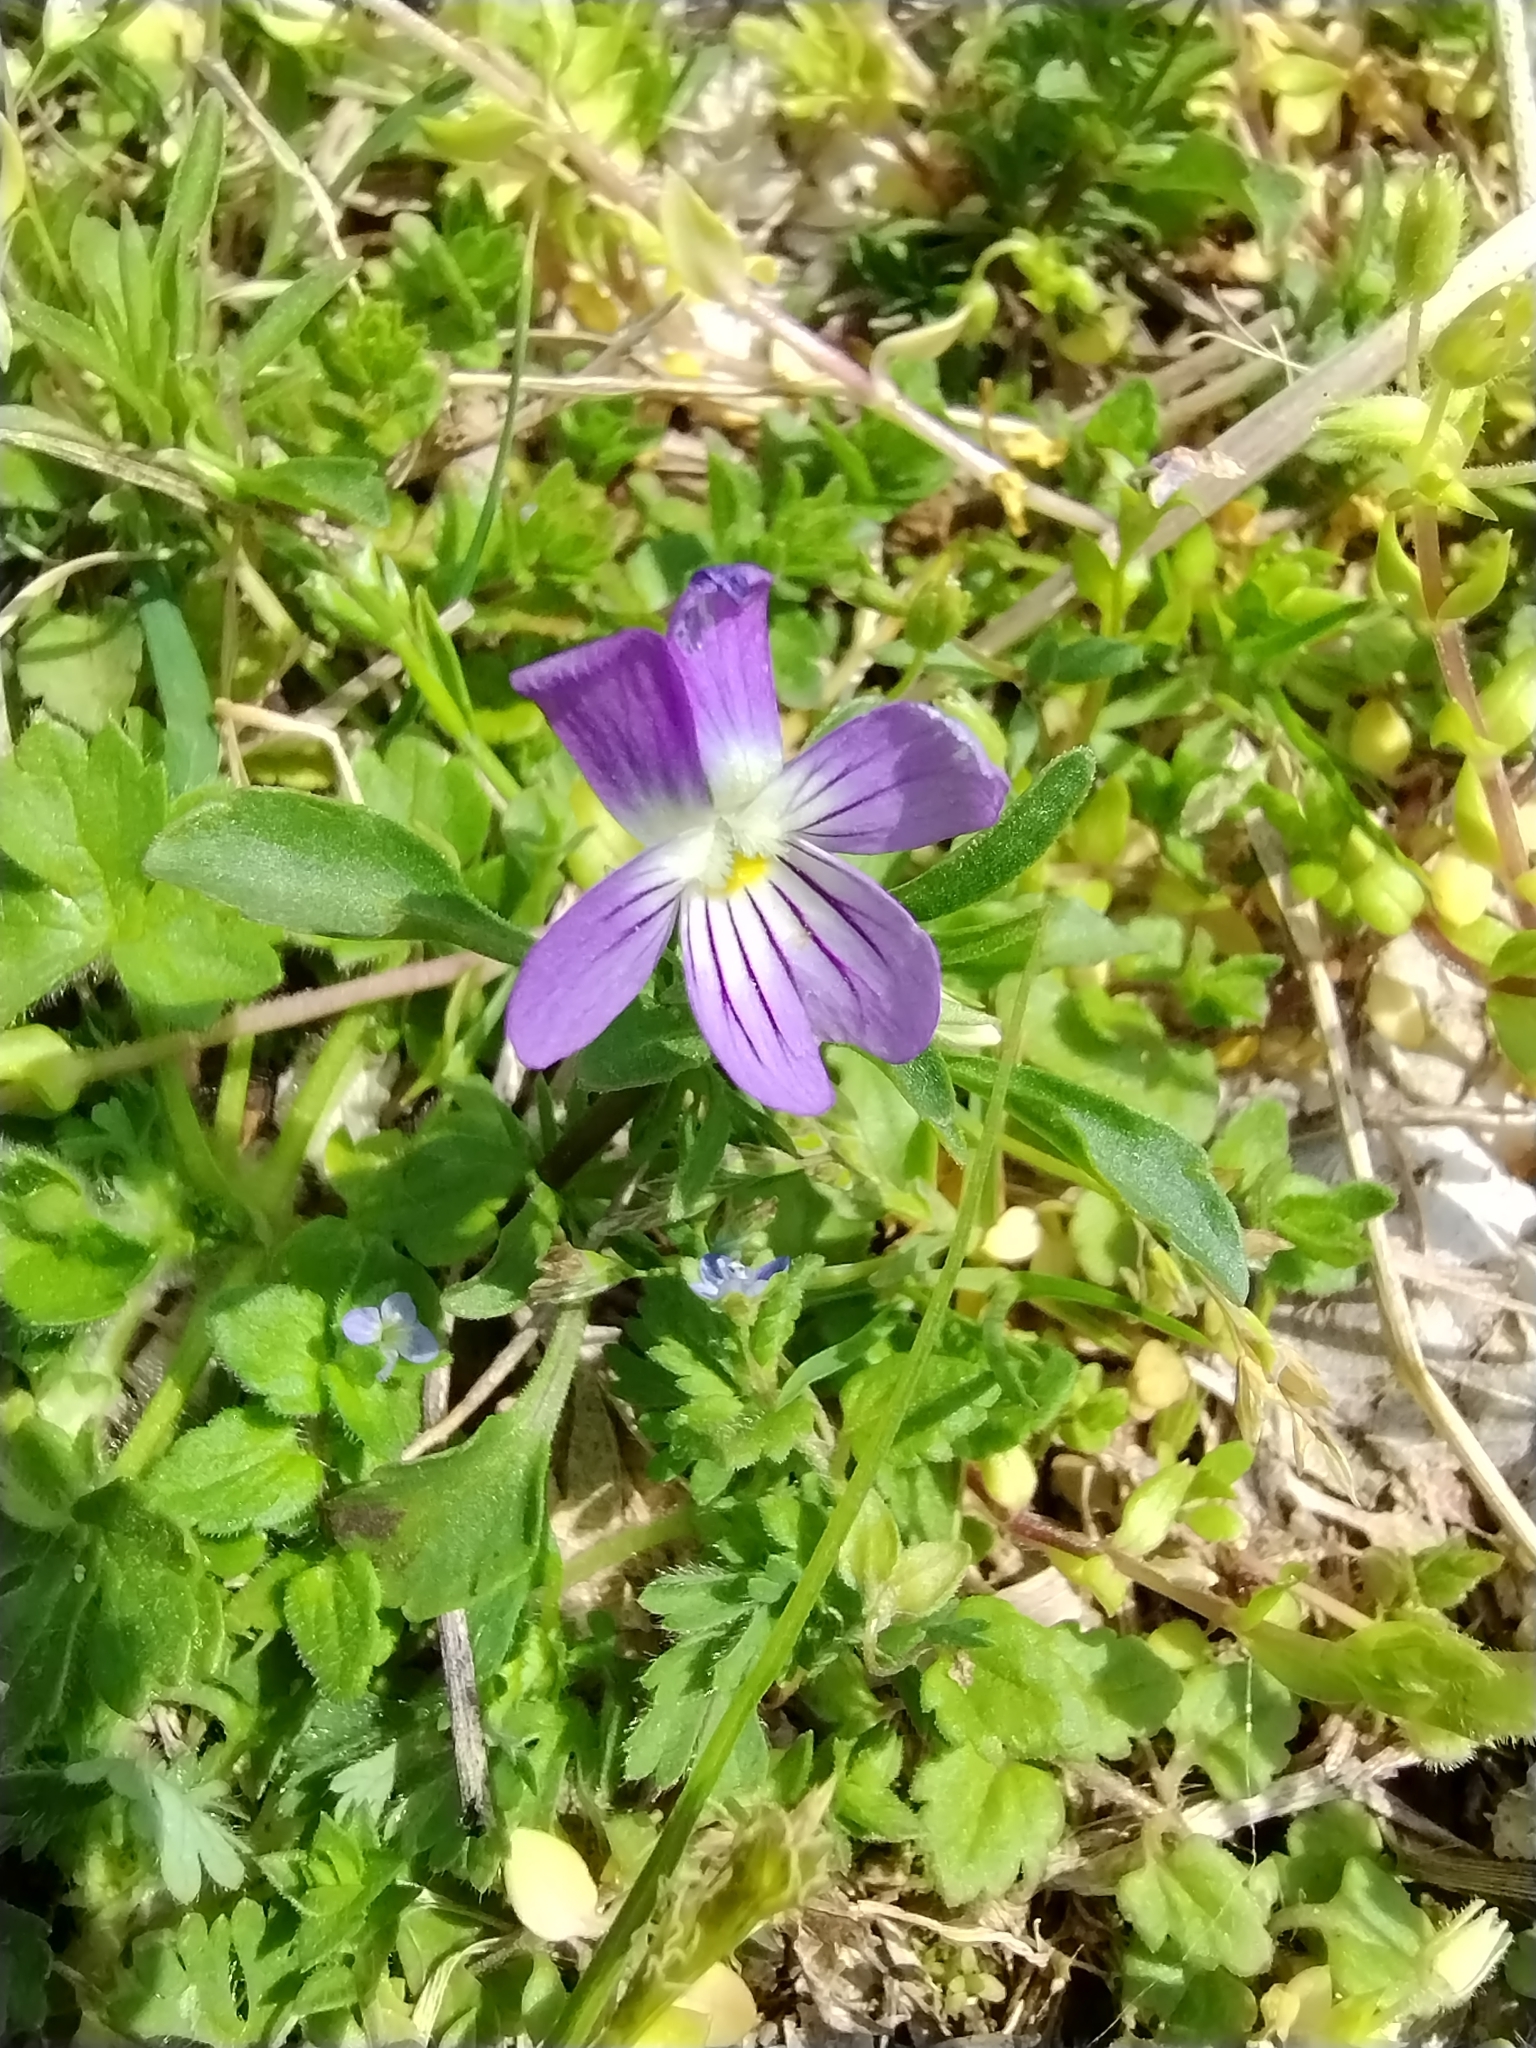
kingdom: Plantae
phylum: Tracheophyta
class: Magnoliopsida
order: Malpighiales
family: Violaceae
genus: Viola
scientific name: Viola rafinesquei
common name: American field pansy
